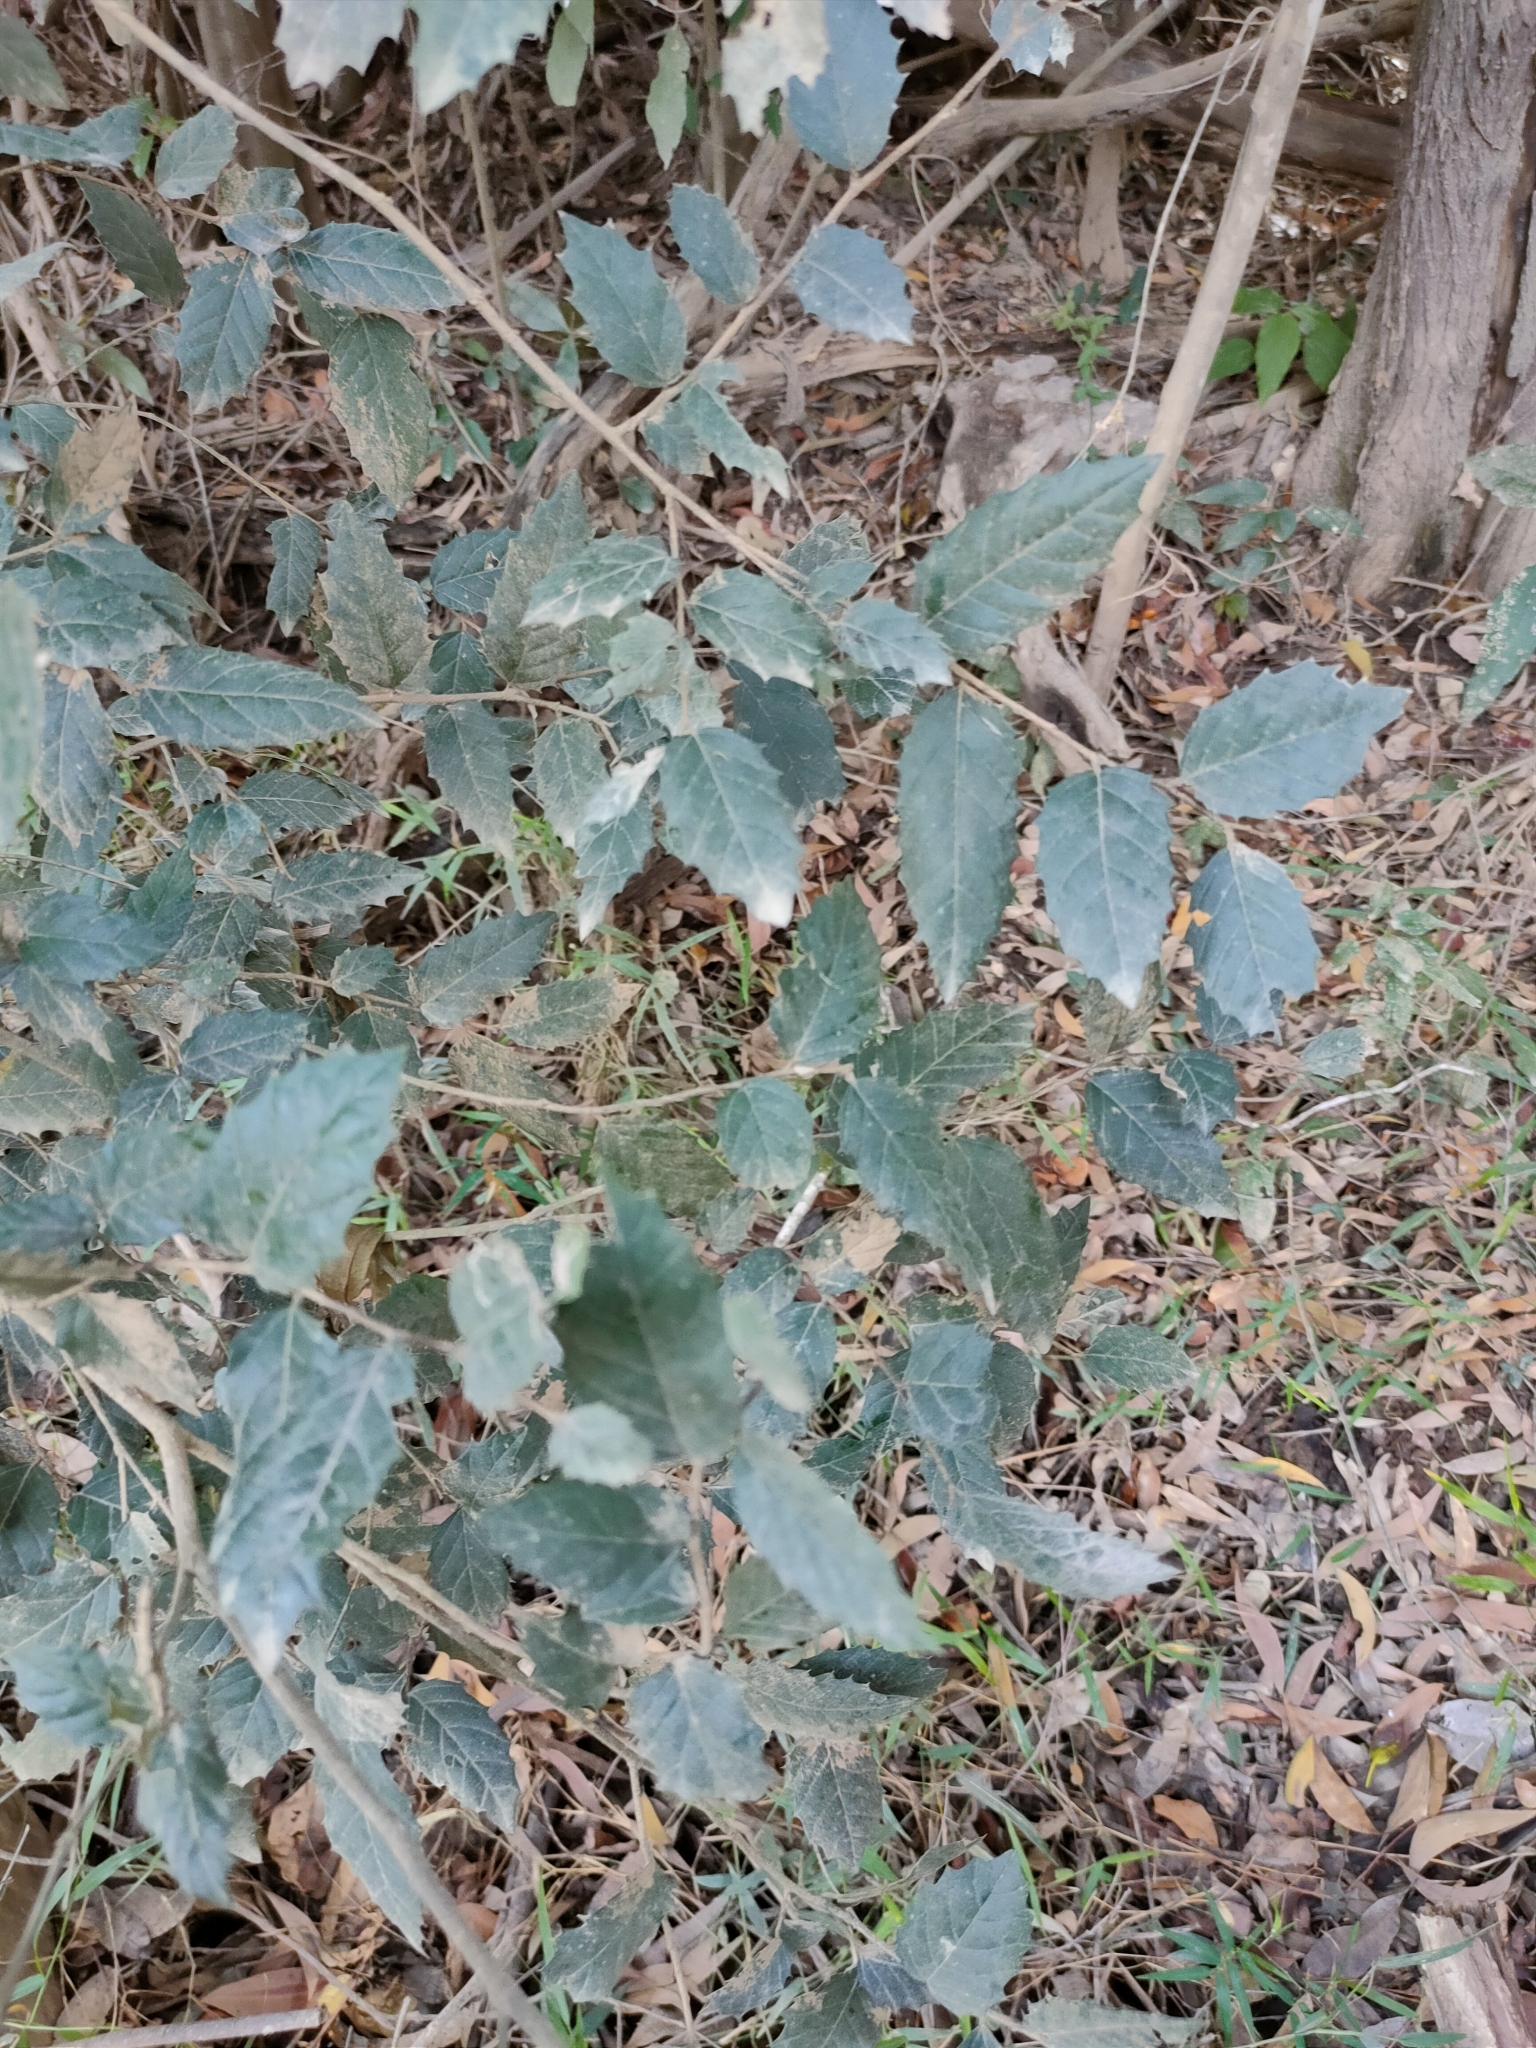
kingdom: Plantae
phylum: Tracheophyta
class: Magnoliopsida
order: Rosales
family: Cannabaceae
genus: Aphananthe
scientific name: Aphananthe philippinensis
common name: Wild holly
